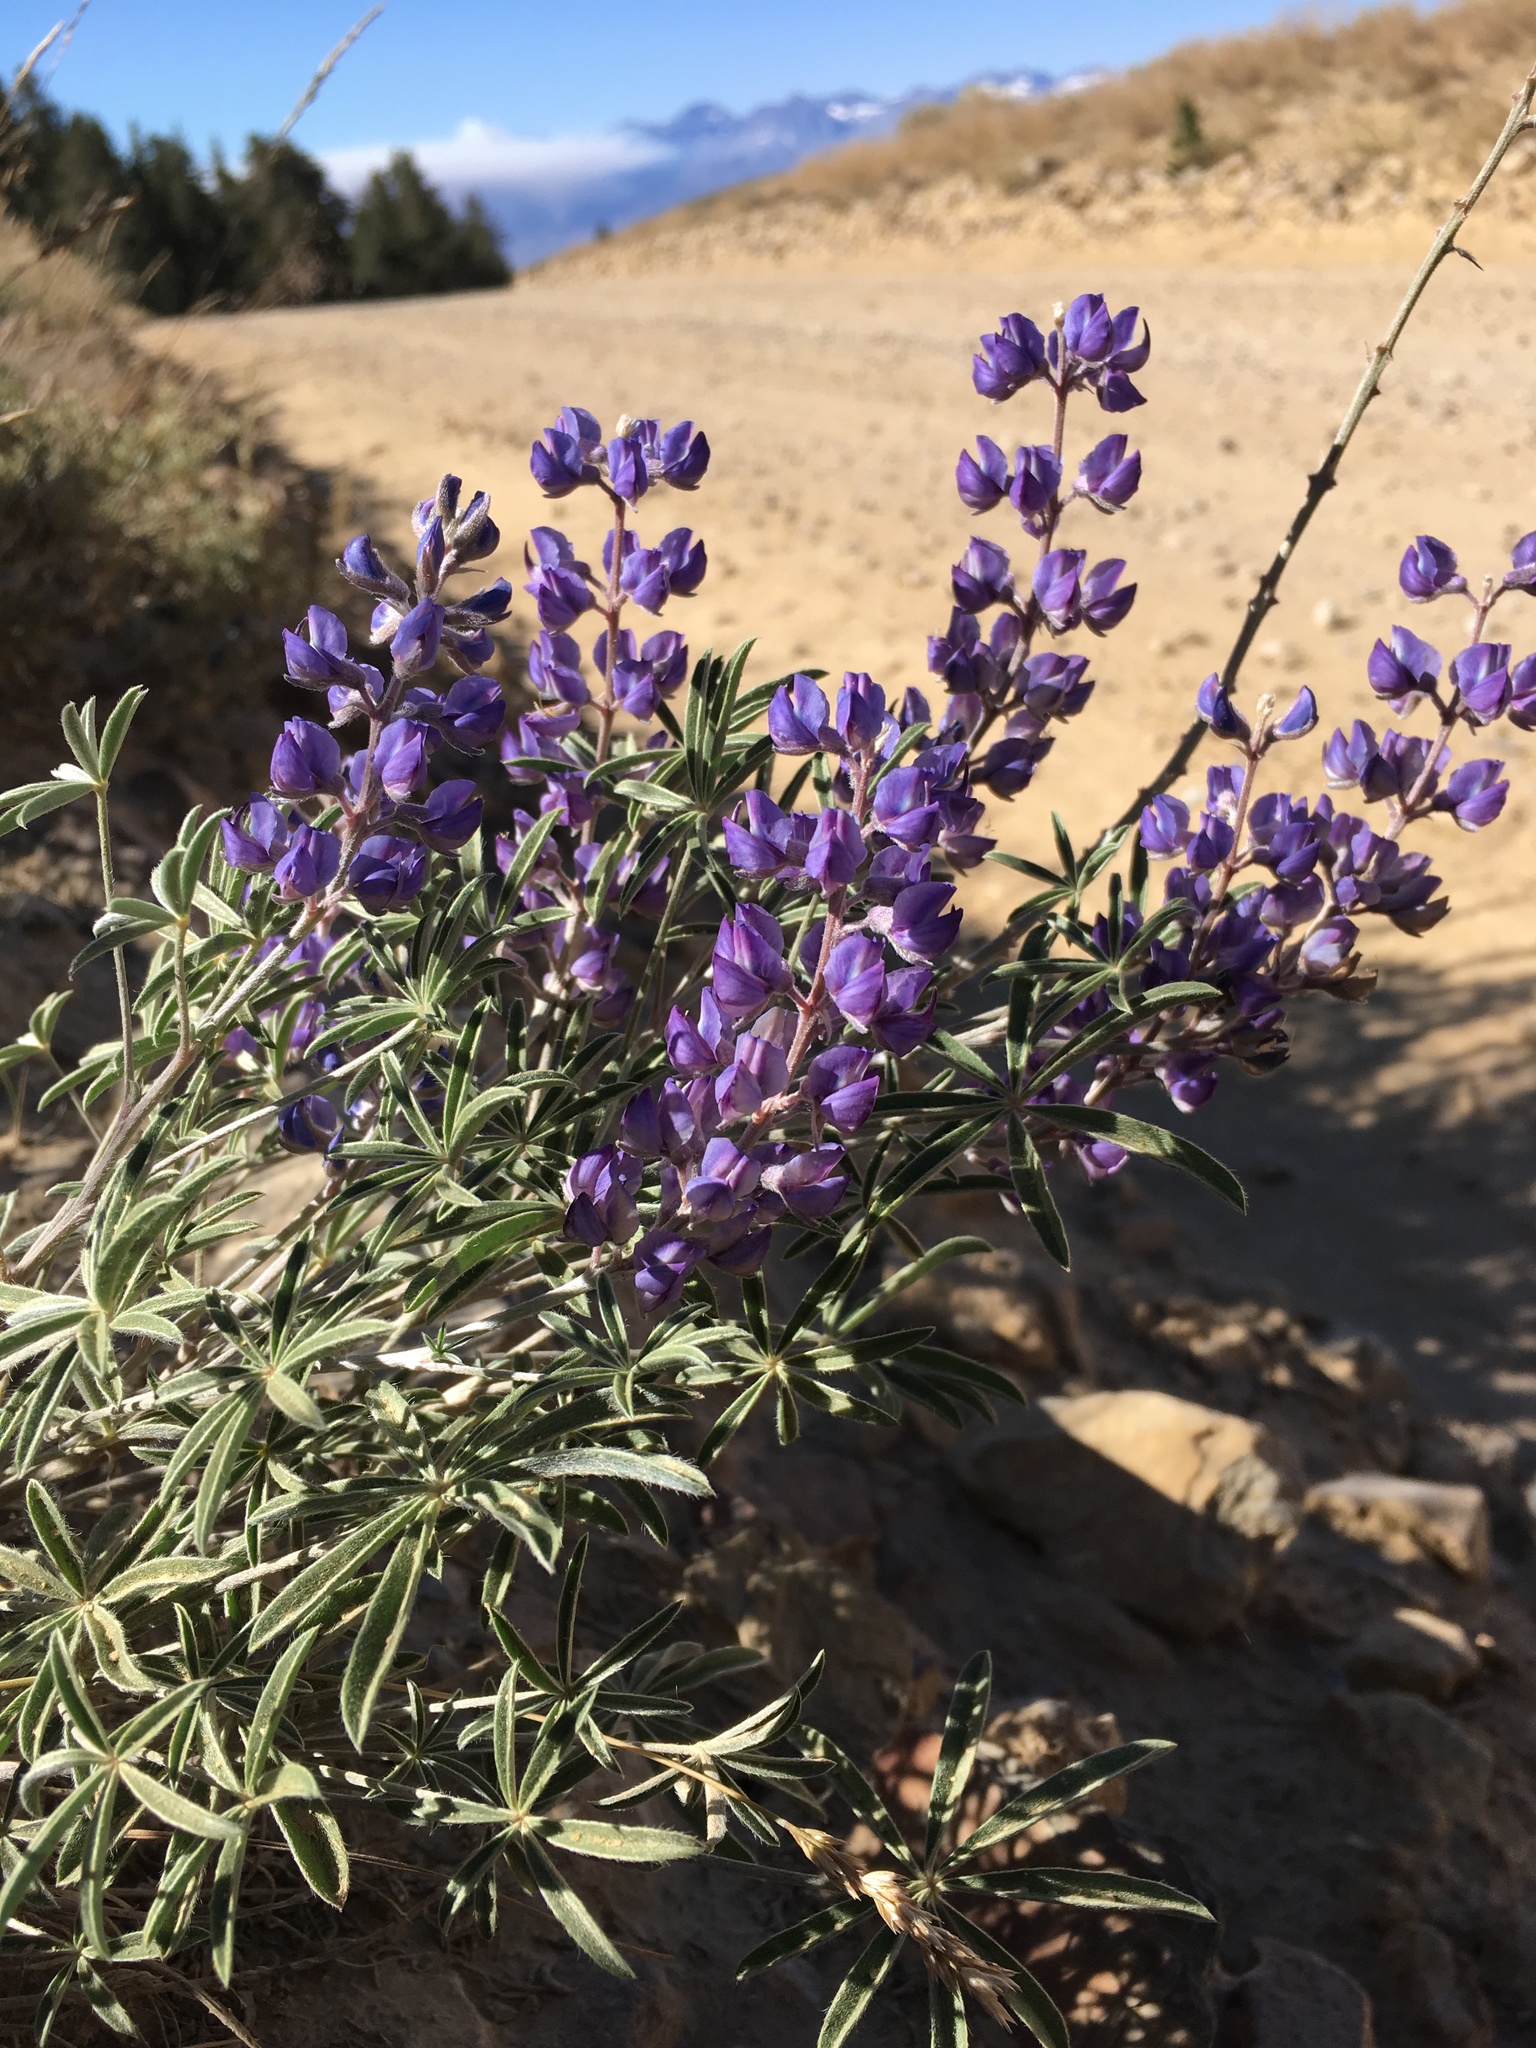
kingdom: Plantae
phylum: Tracheophyta
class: Magnoliopsida
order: Fabales
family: Fabaceae
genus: Lupinus
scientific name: Lupinus caudatus
